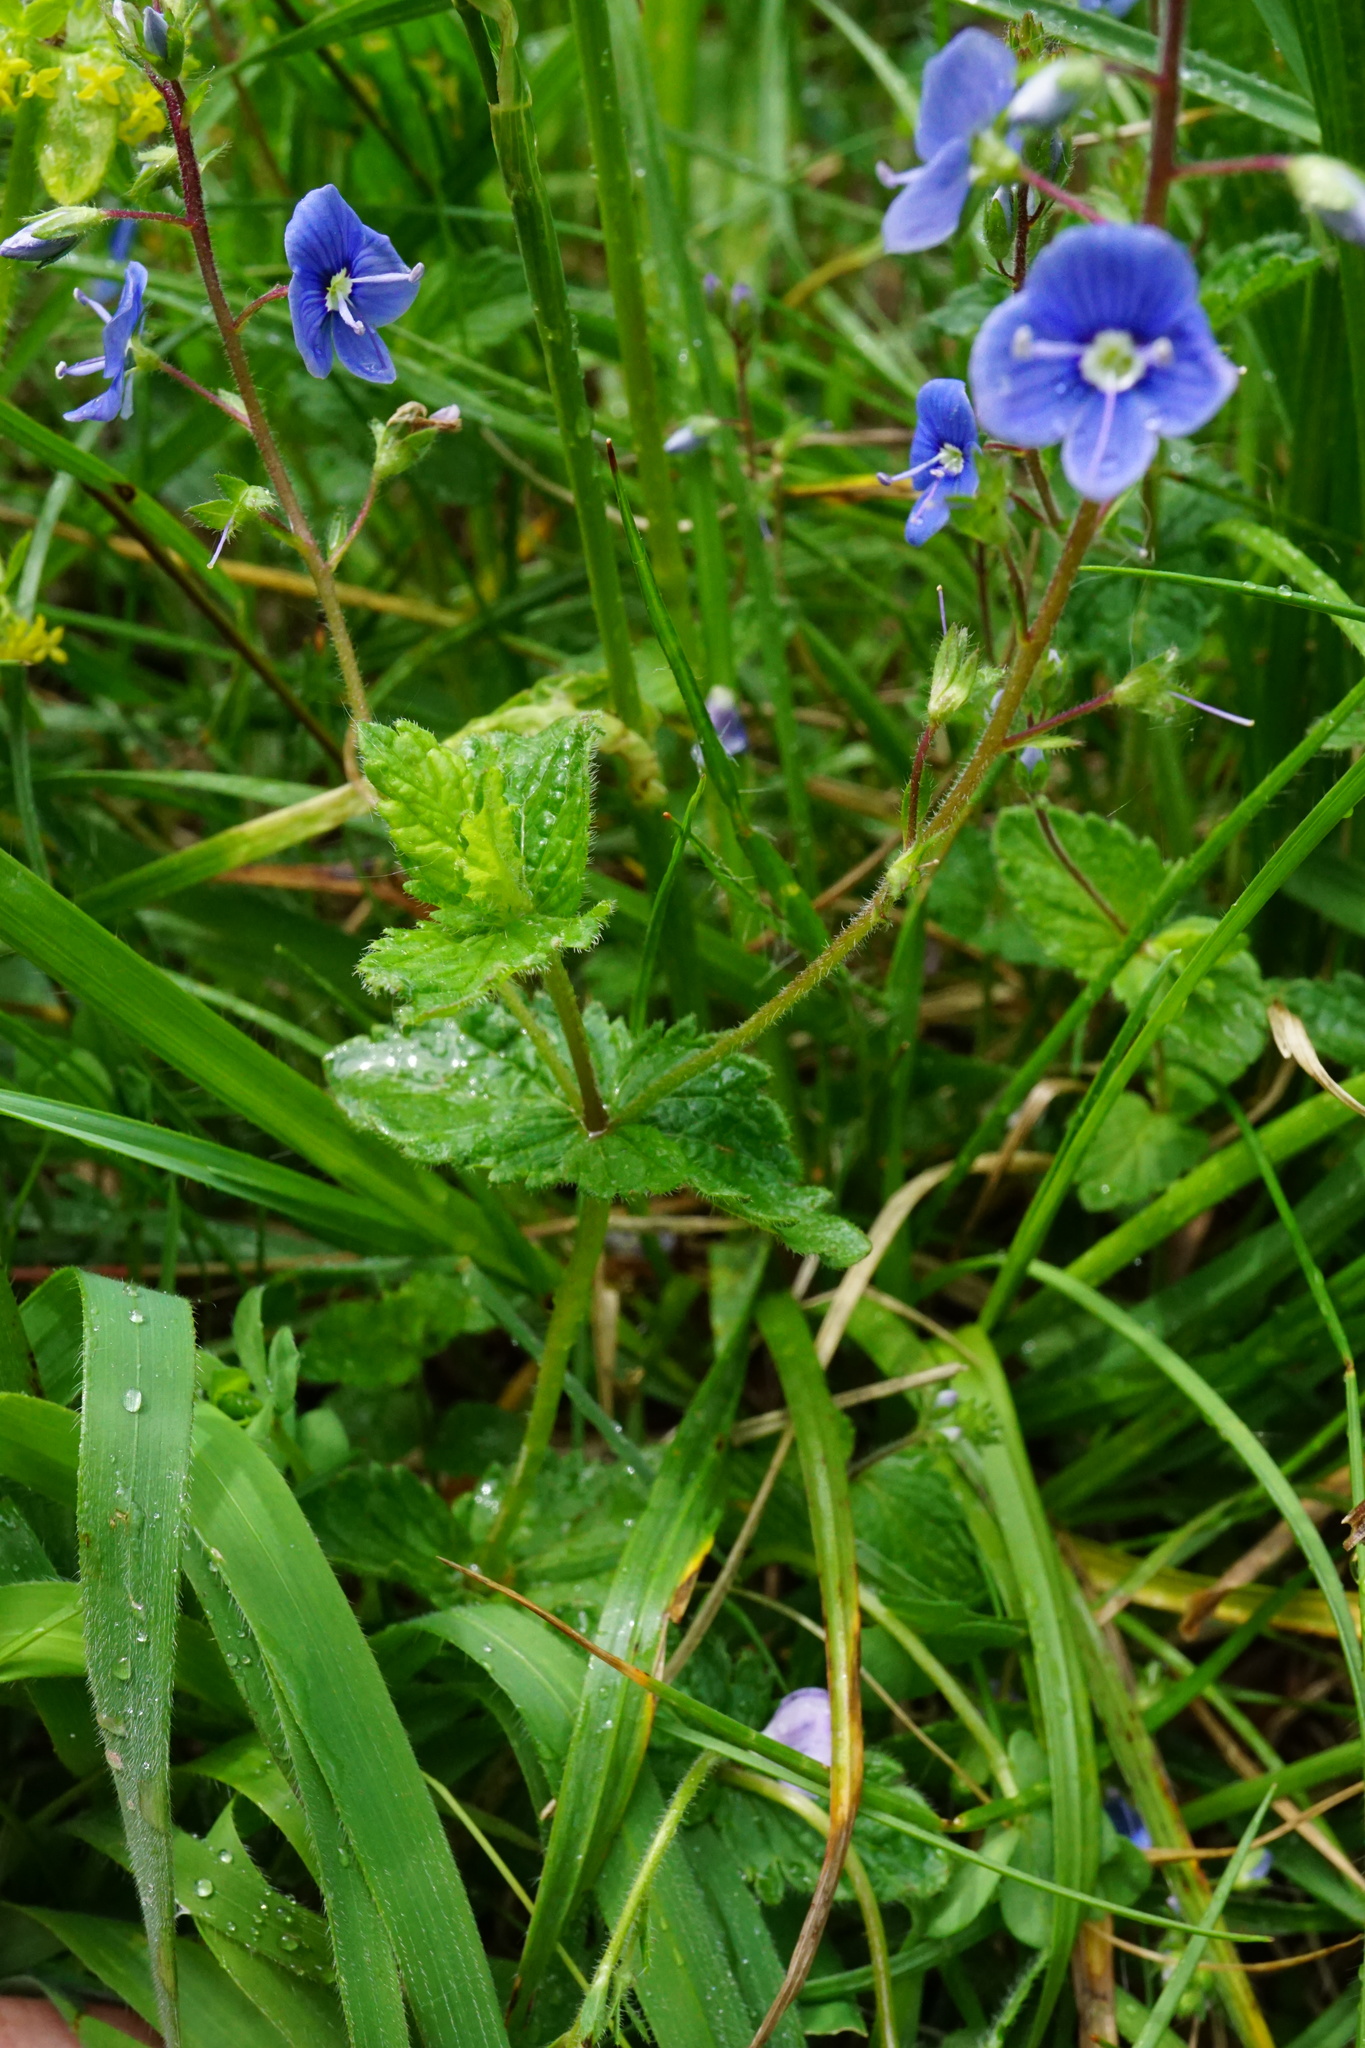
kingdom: Plantae
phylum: Tracheophyta
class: Magnoliopsida
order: Lamiales
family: Plantaginaceae
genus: Veronica
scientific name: Veronica chamaedrys
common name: Germander speedwell
